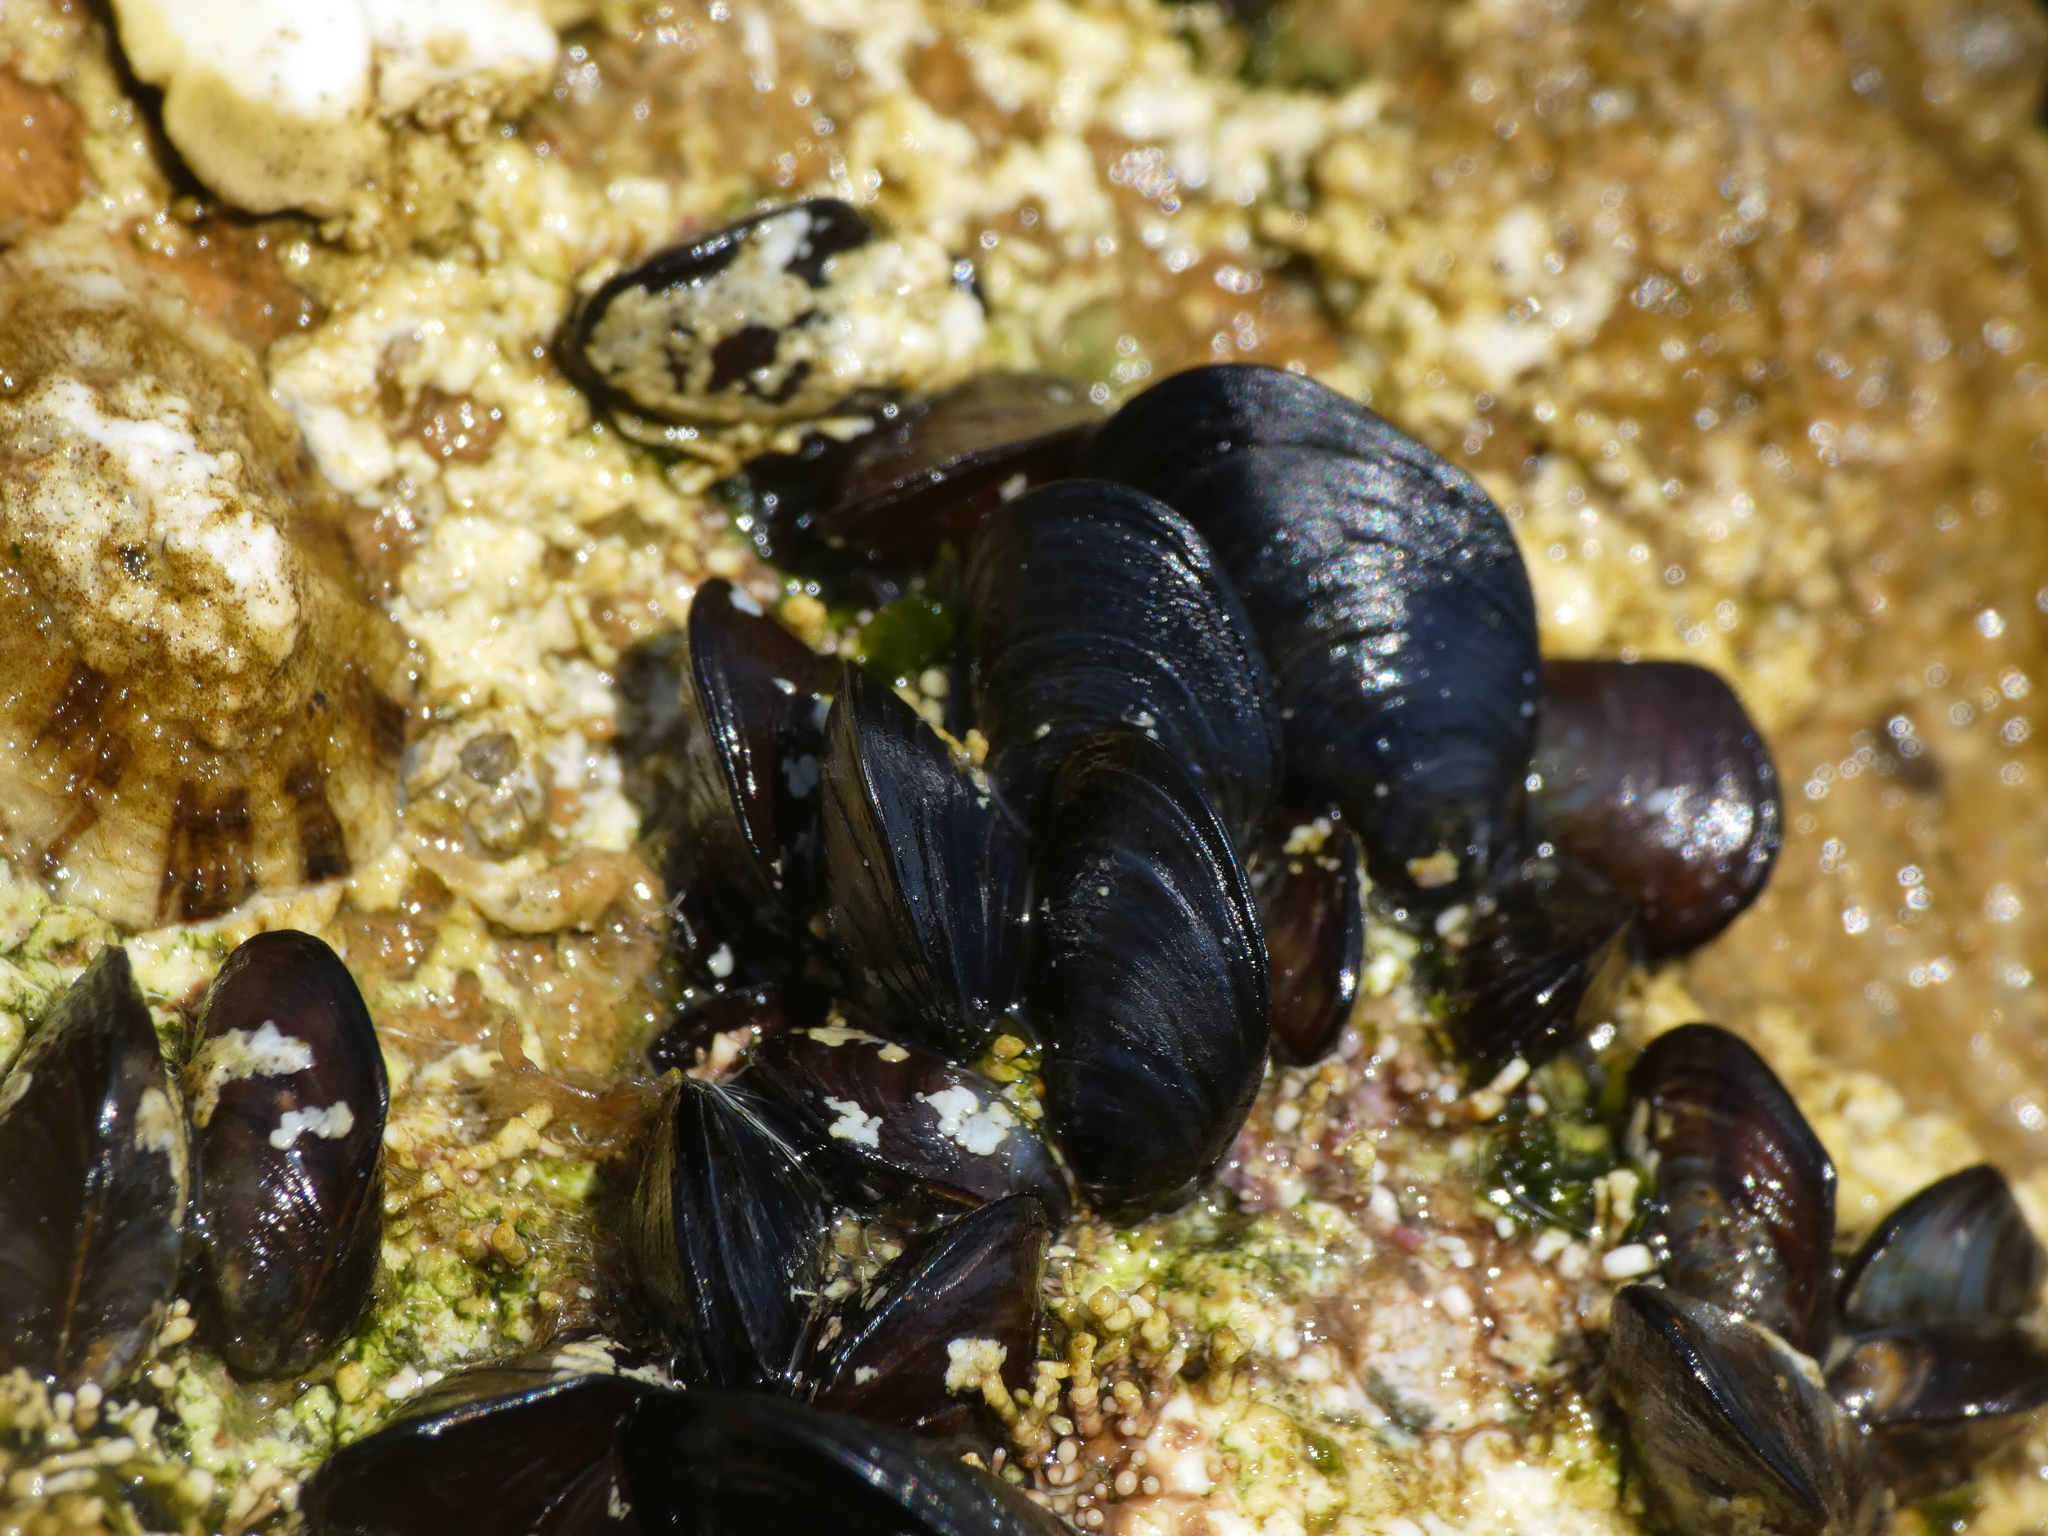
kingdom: Animalia
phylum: Mollusca
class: Bivalvia
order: Mytilida
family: Mytilidae
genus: Mytilus
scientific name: Mytilus galloprovincialis
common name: Mediterranean mussel
